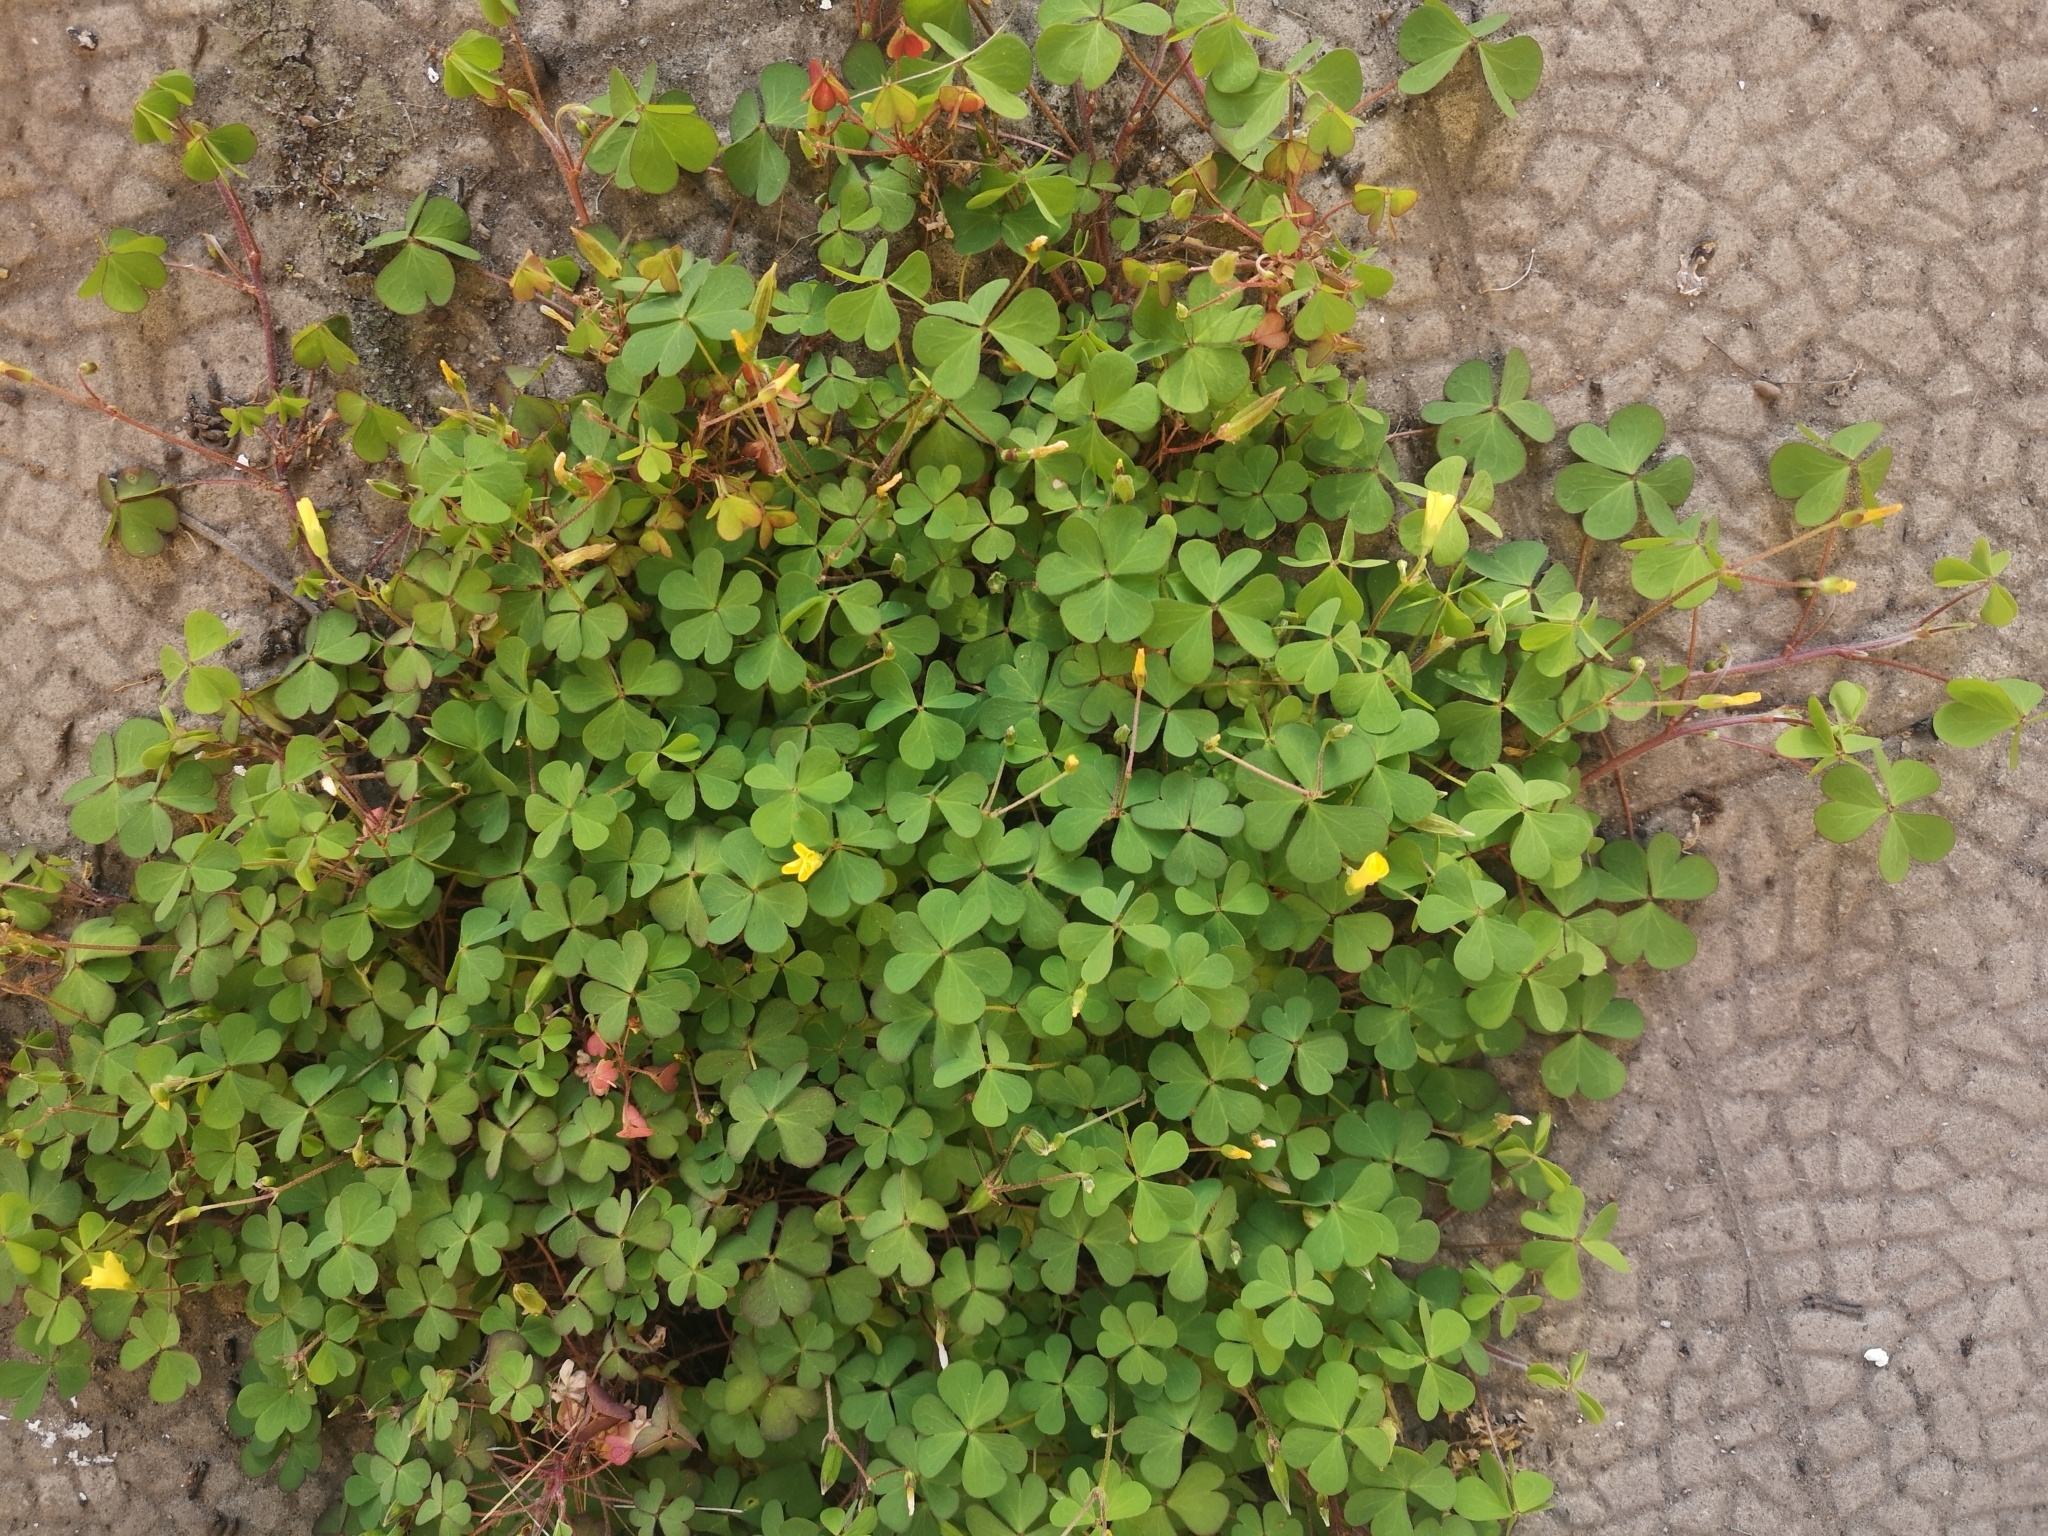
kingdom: Plantae
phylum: Tracheophyta
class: Magnoliopsida
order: Oxalidales
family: Oxalidaceae
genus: Oxalis
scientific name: Oxalis corniculata
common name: Procumbent yellow-sorrel
